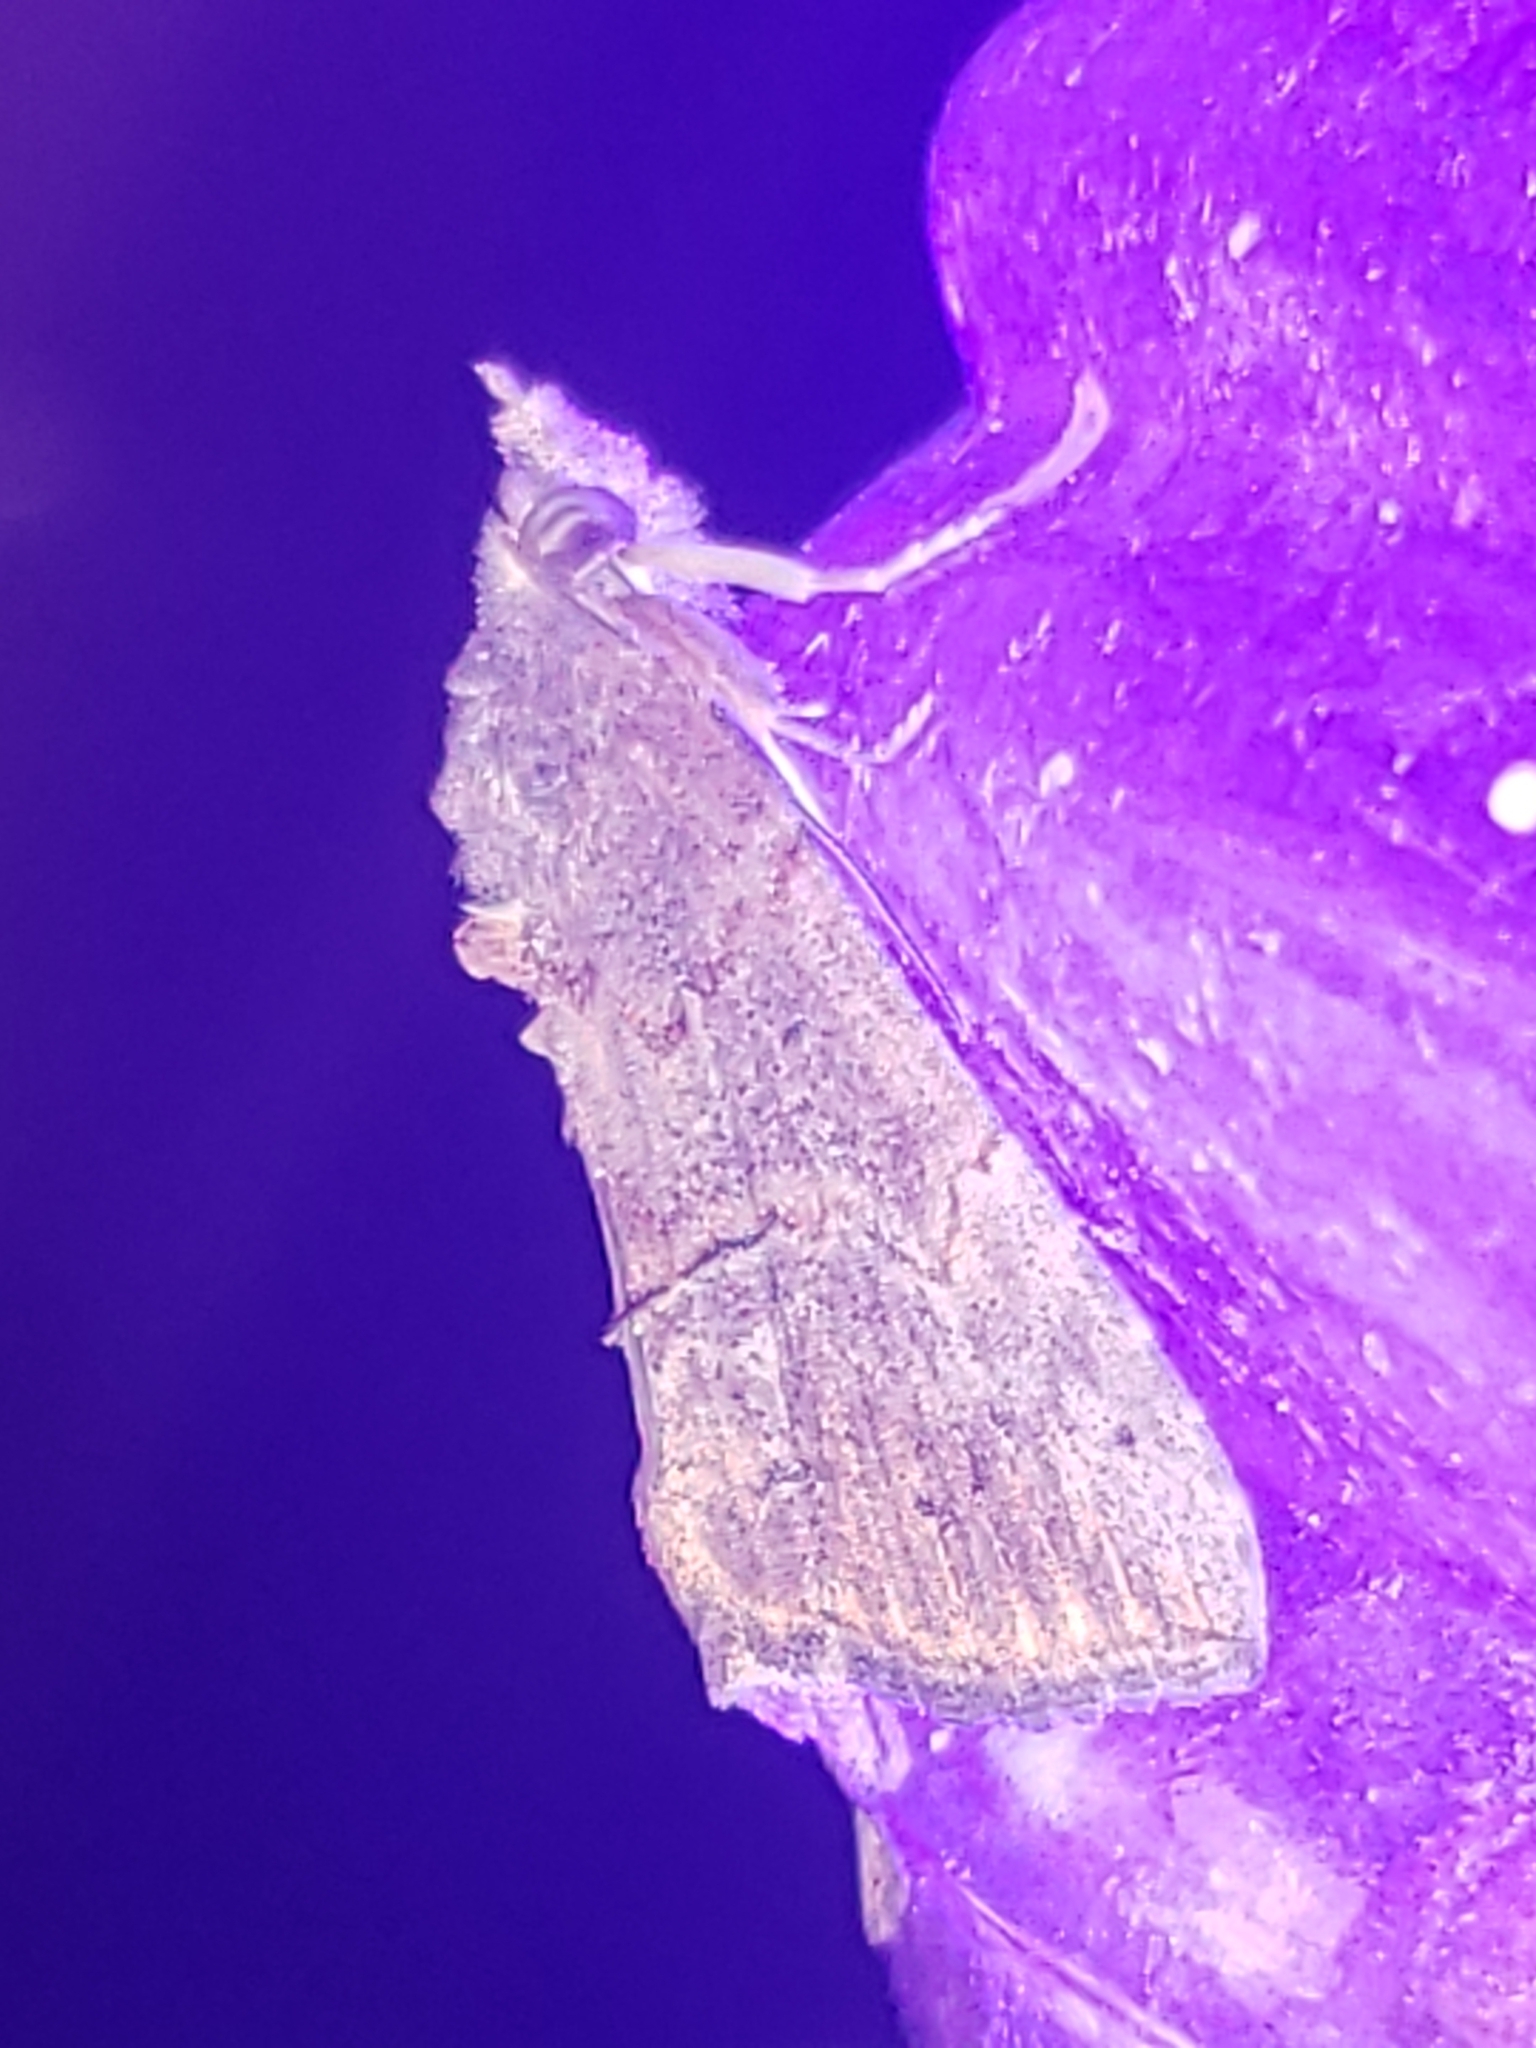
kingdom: Animalia
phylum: Arthropoda
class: Insecta
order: Lepidoptera
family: Erebidae
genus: Hypena
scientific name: Hypena scabra
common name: Green cloverworm
